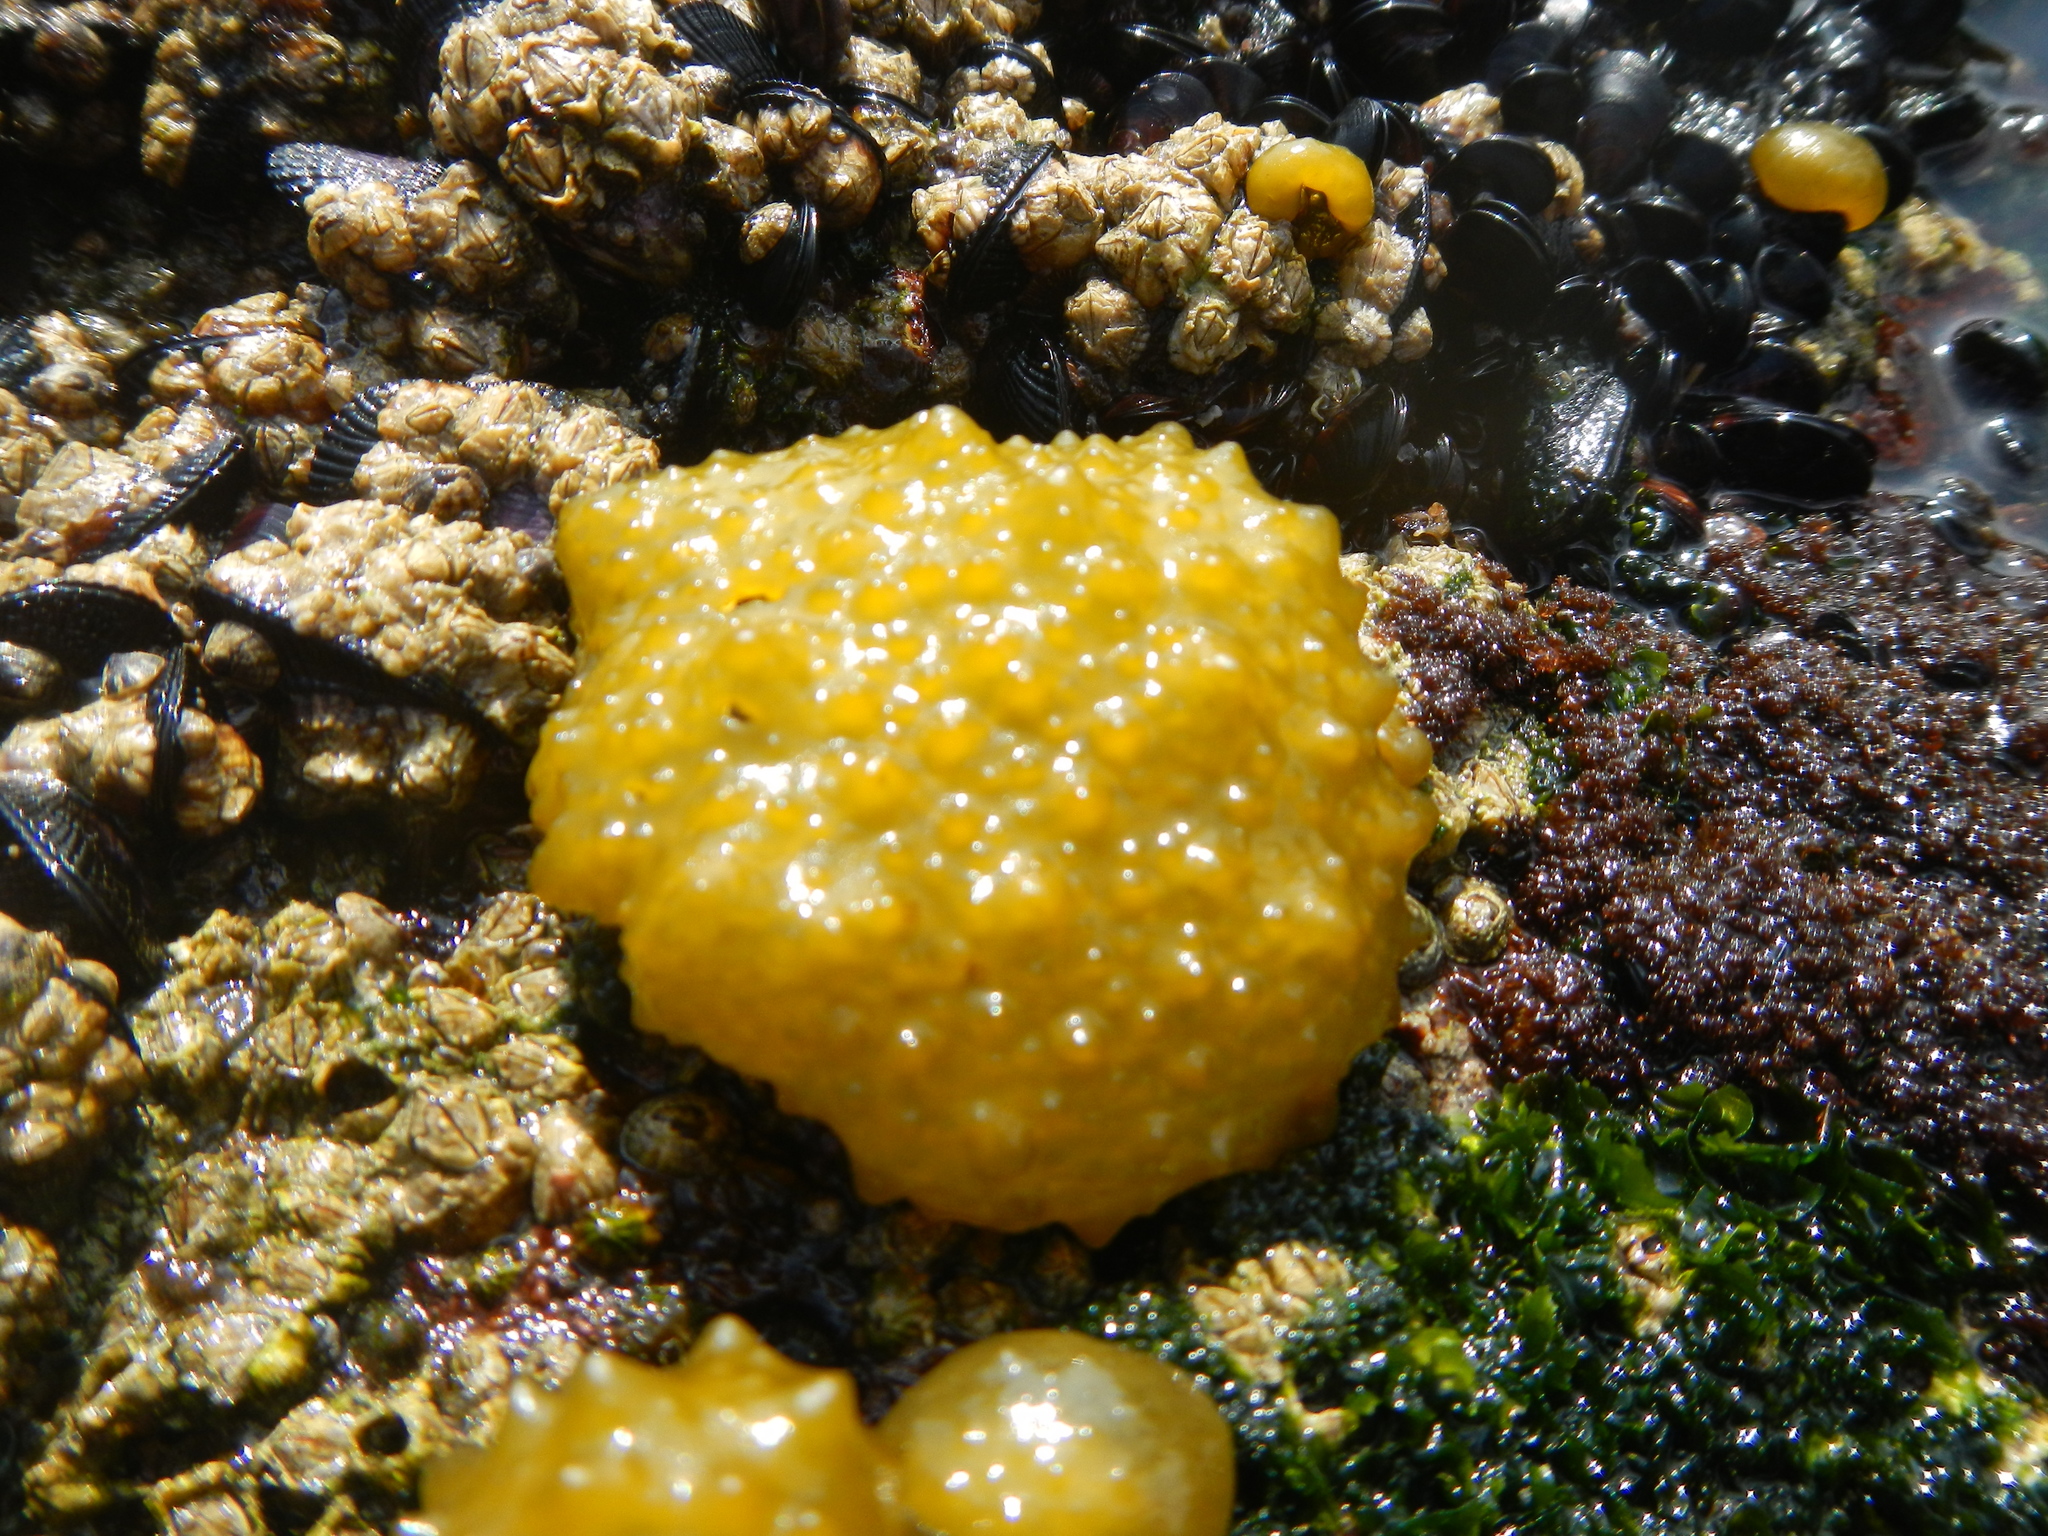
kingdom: Chromista
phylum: Ochrophyta
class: Phaeophyceae
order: Scytosiphonales
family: Scytosiphonaceae
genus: Colpomenia
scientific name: Colpomenia
